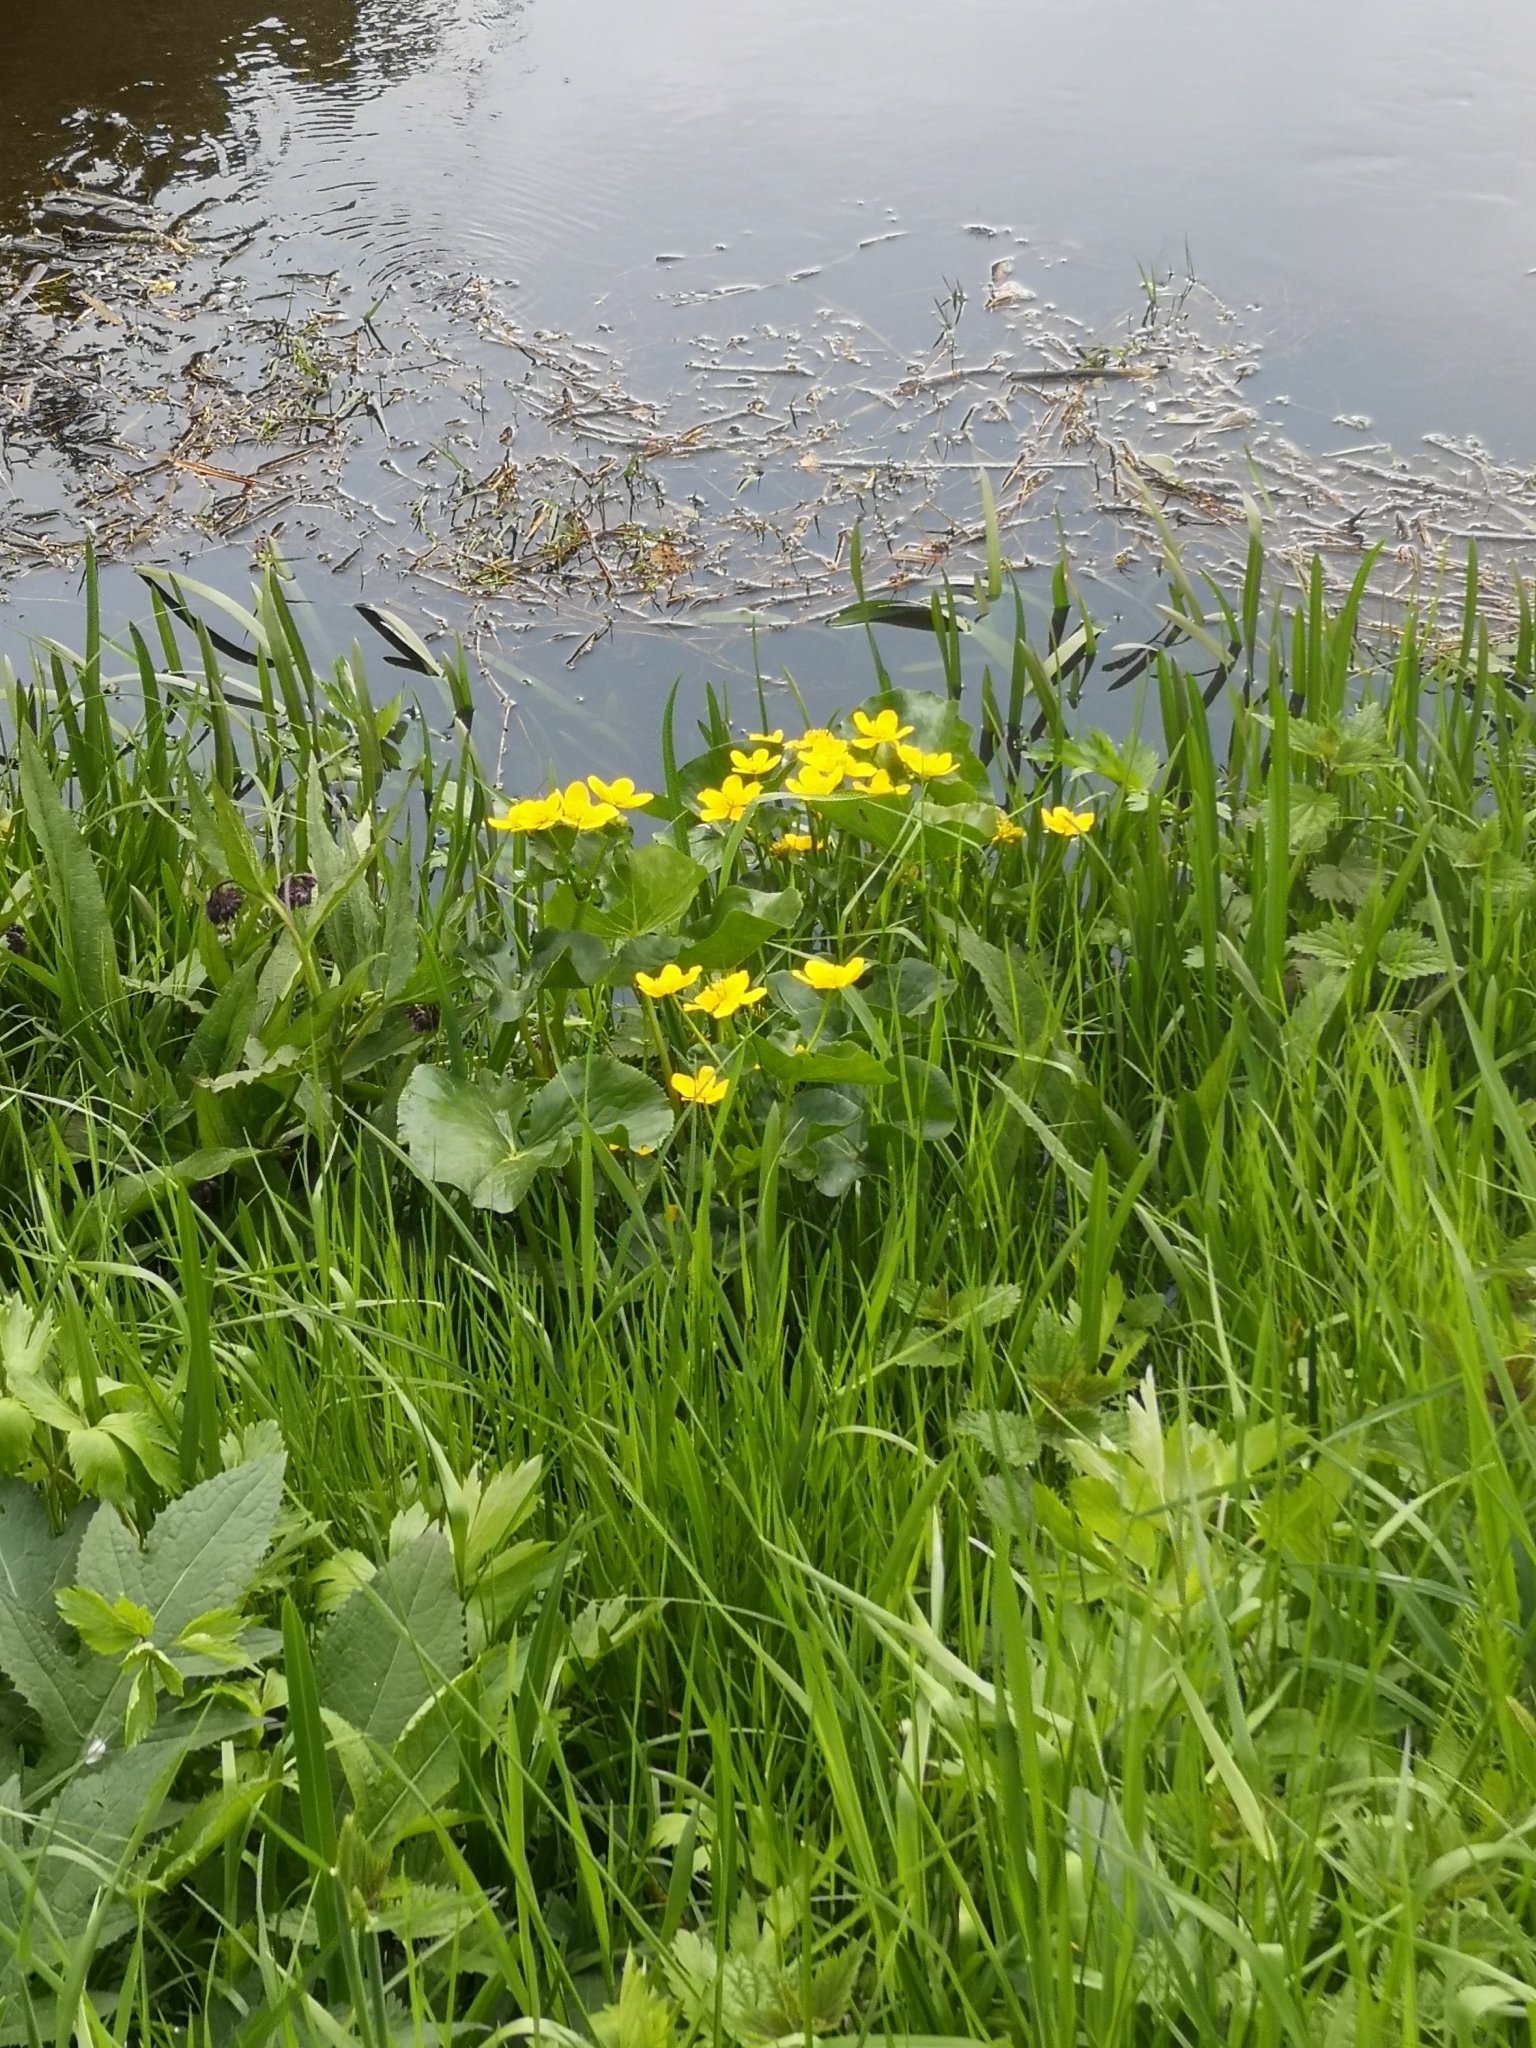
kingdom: Plantae
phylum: Tracheophyta
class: Magnoliopsida
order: Ranunculales
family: Ranunculaceae
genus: Caltha
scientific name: Caltha palustris
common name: Marsh marigold
